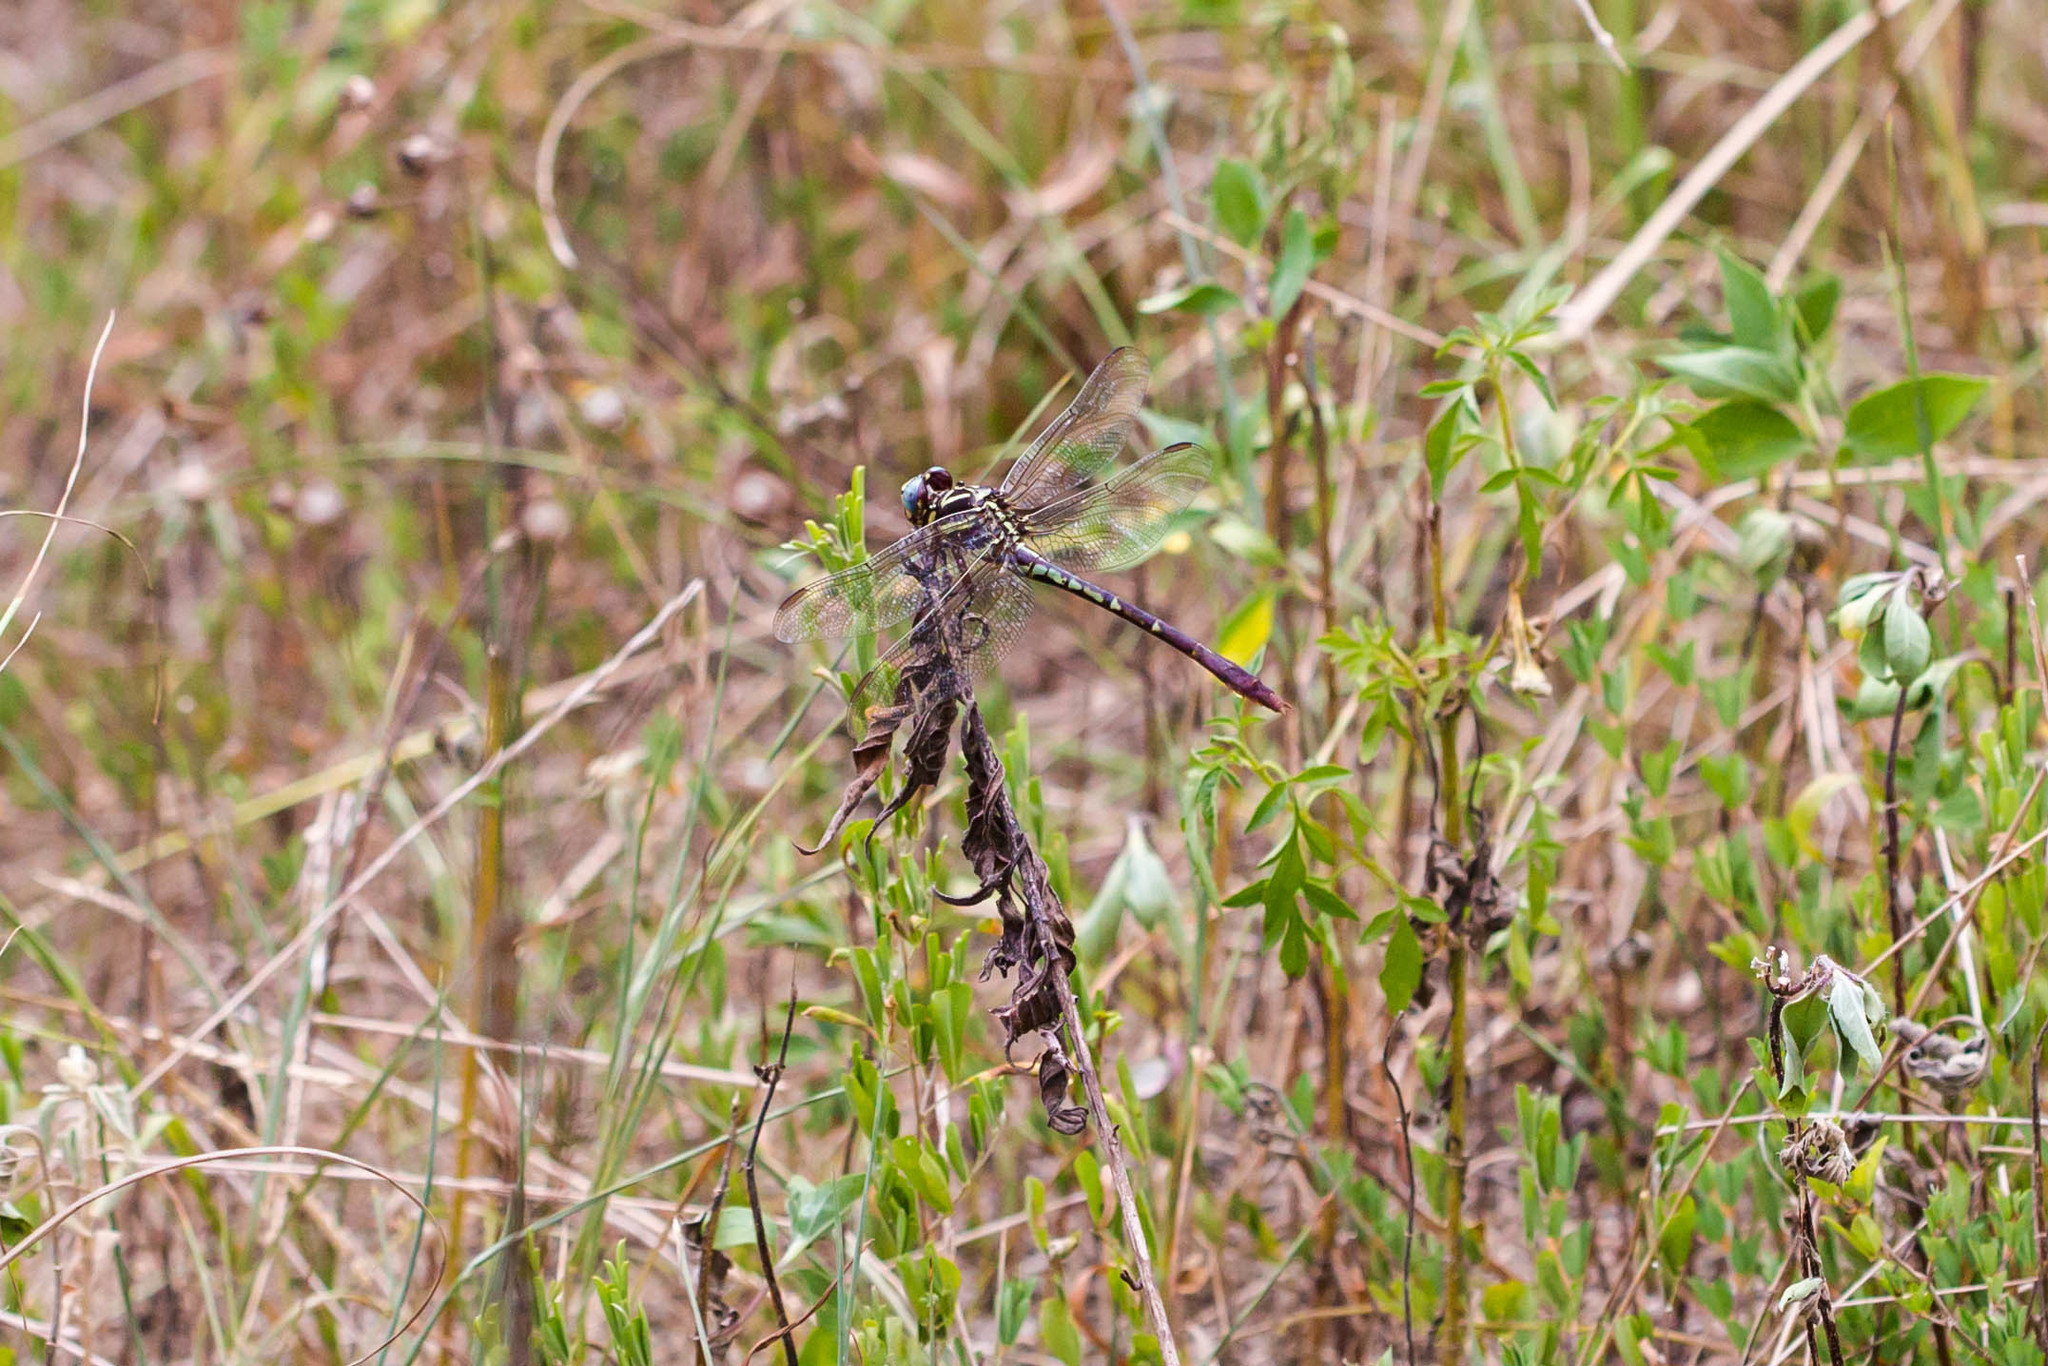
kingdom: Animalia
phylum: Arthropoda
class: Insecta
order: Odonata
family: Gomphidae
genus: Aphylla
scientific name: Aphylla williamsoni
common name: Two-striped forceptail
